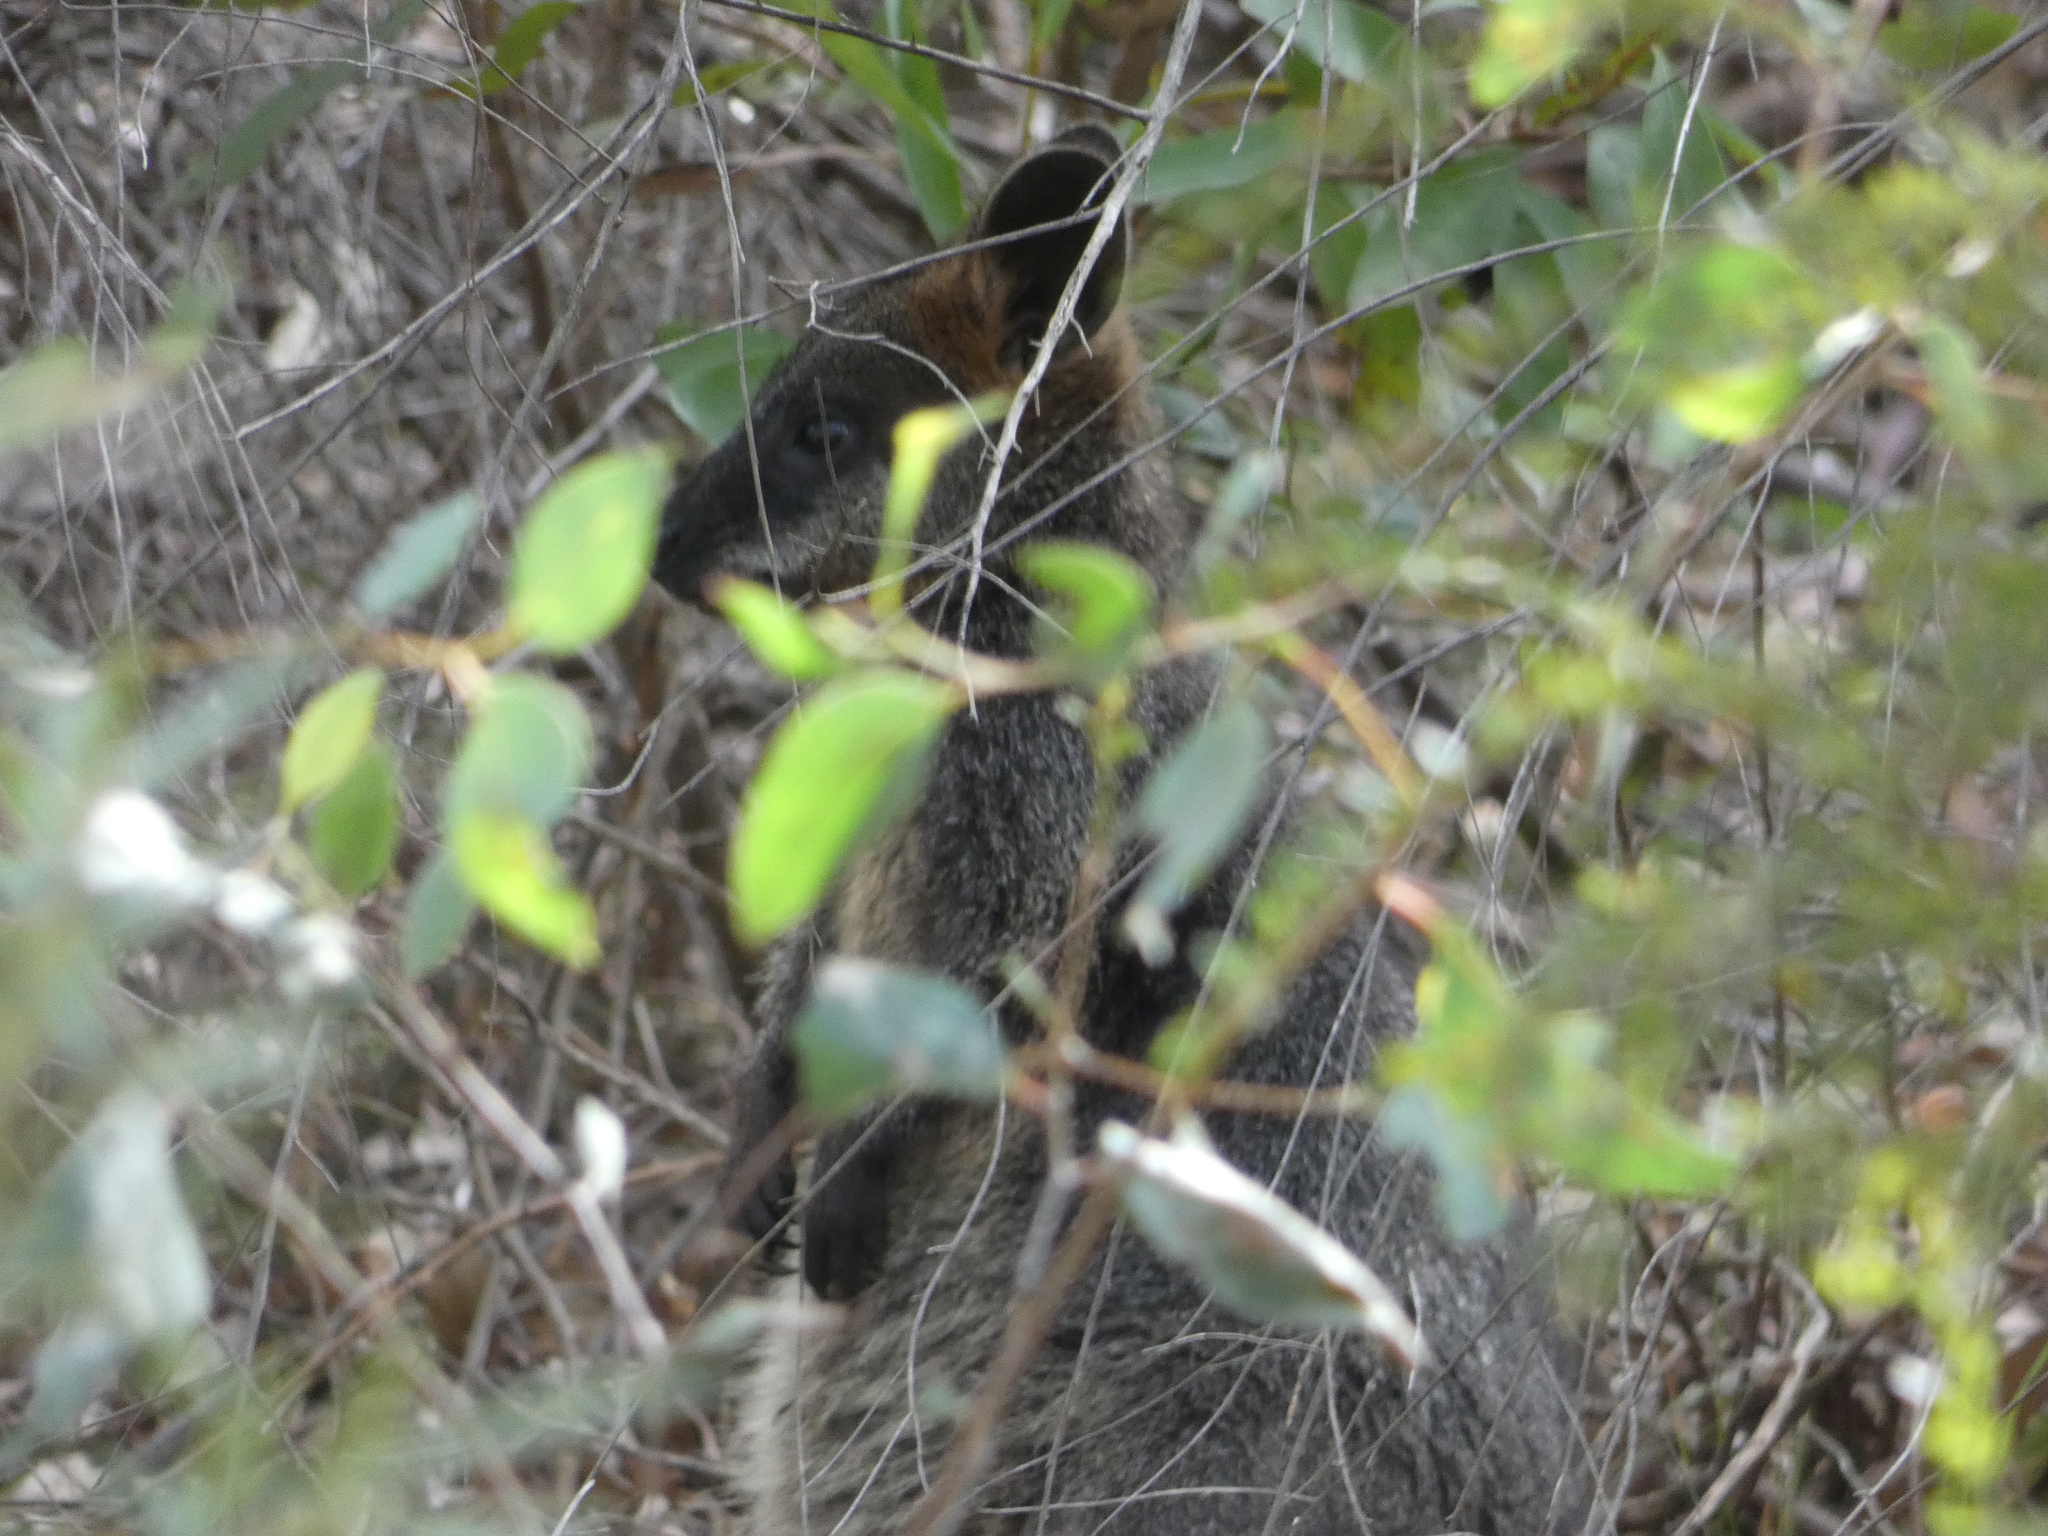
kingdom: Animalia
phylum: Chordata
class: Mammalia
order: Diprotodontia
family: Macropodidae
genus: Wallabia
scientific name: Wallabia bicolor
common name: Swamp wallaby
